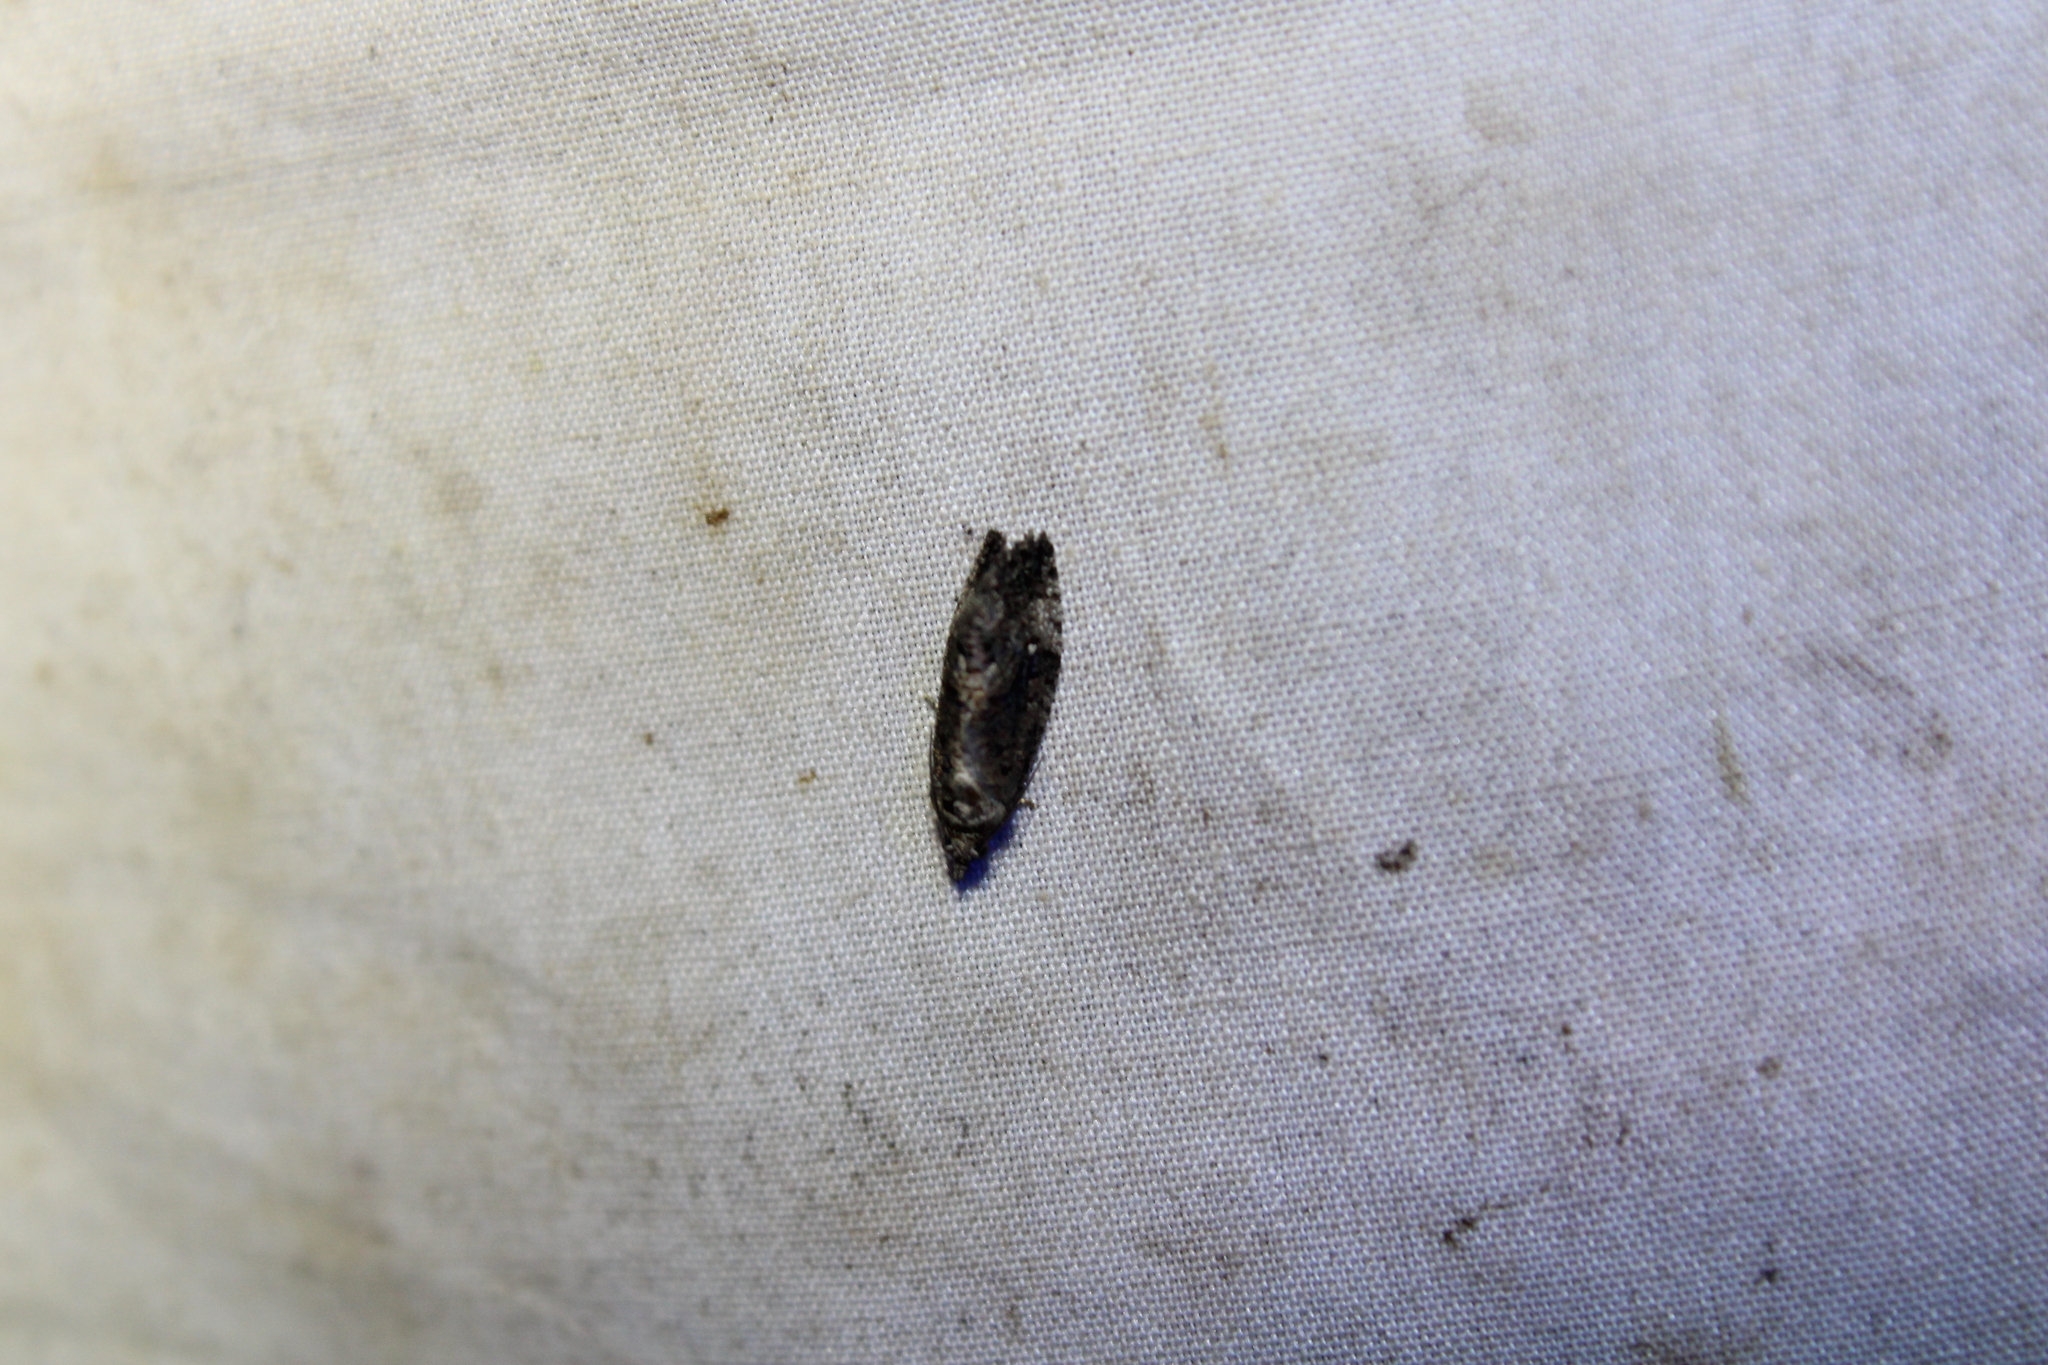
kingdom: Animalia
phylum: Arthropoda
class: Insecta
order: Lepidoptera
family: Tortricidae
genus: Gymnandrosoma
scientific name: Gymnandrosoma punctidiscanum
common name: Dotted ecdytolopha moth
